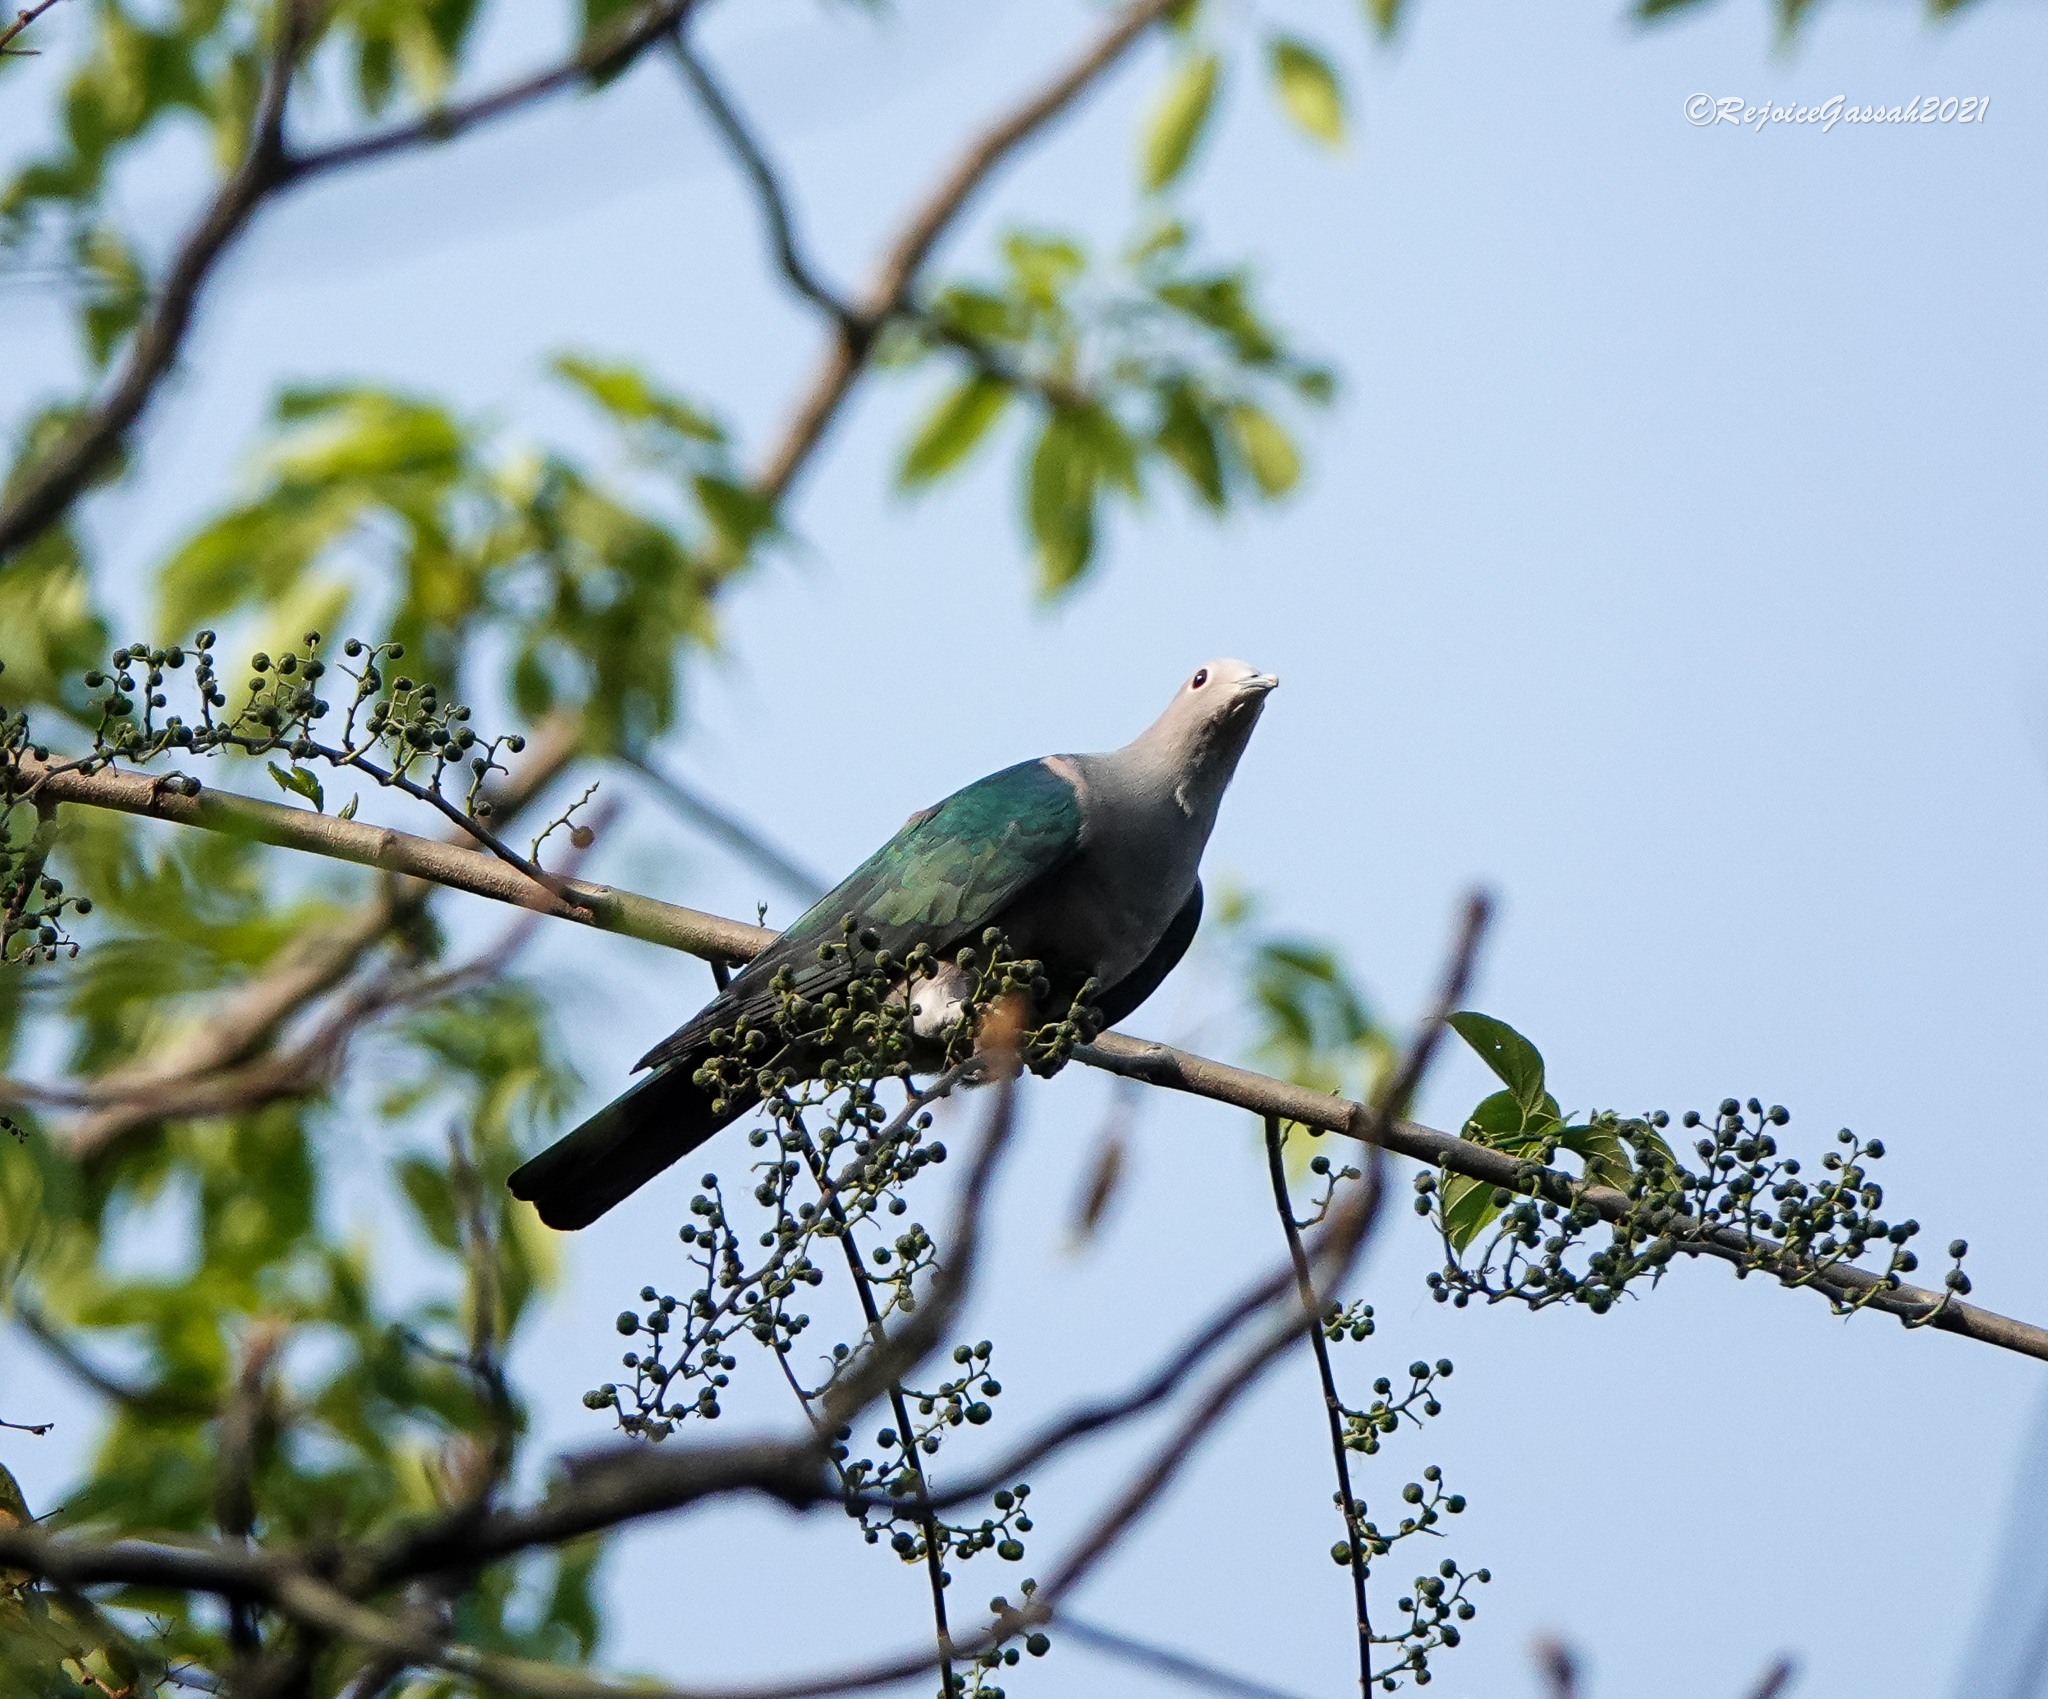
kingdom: Animalia
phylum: Chordata
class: Aves
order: Columbiformes
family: Columbidae
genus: Ducula
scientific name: Ducula aenea
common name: Green imperial pigeon
